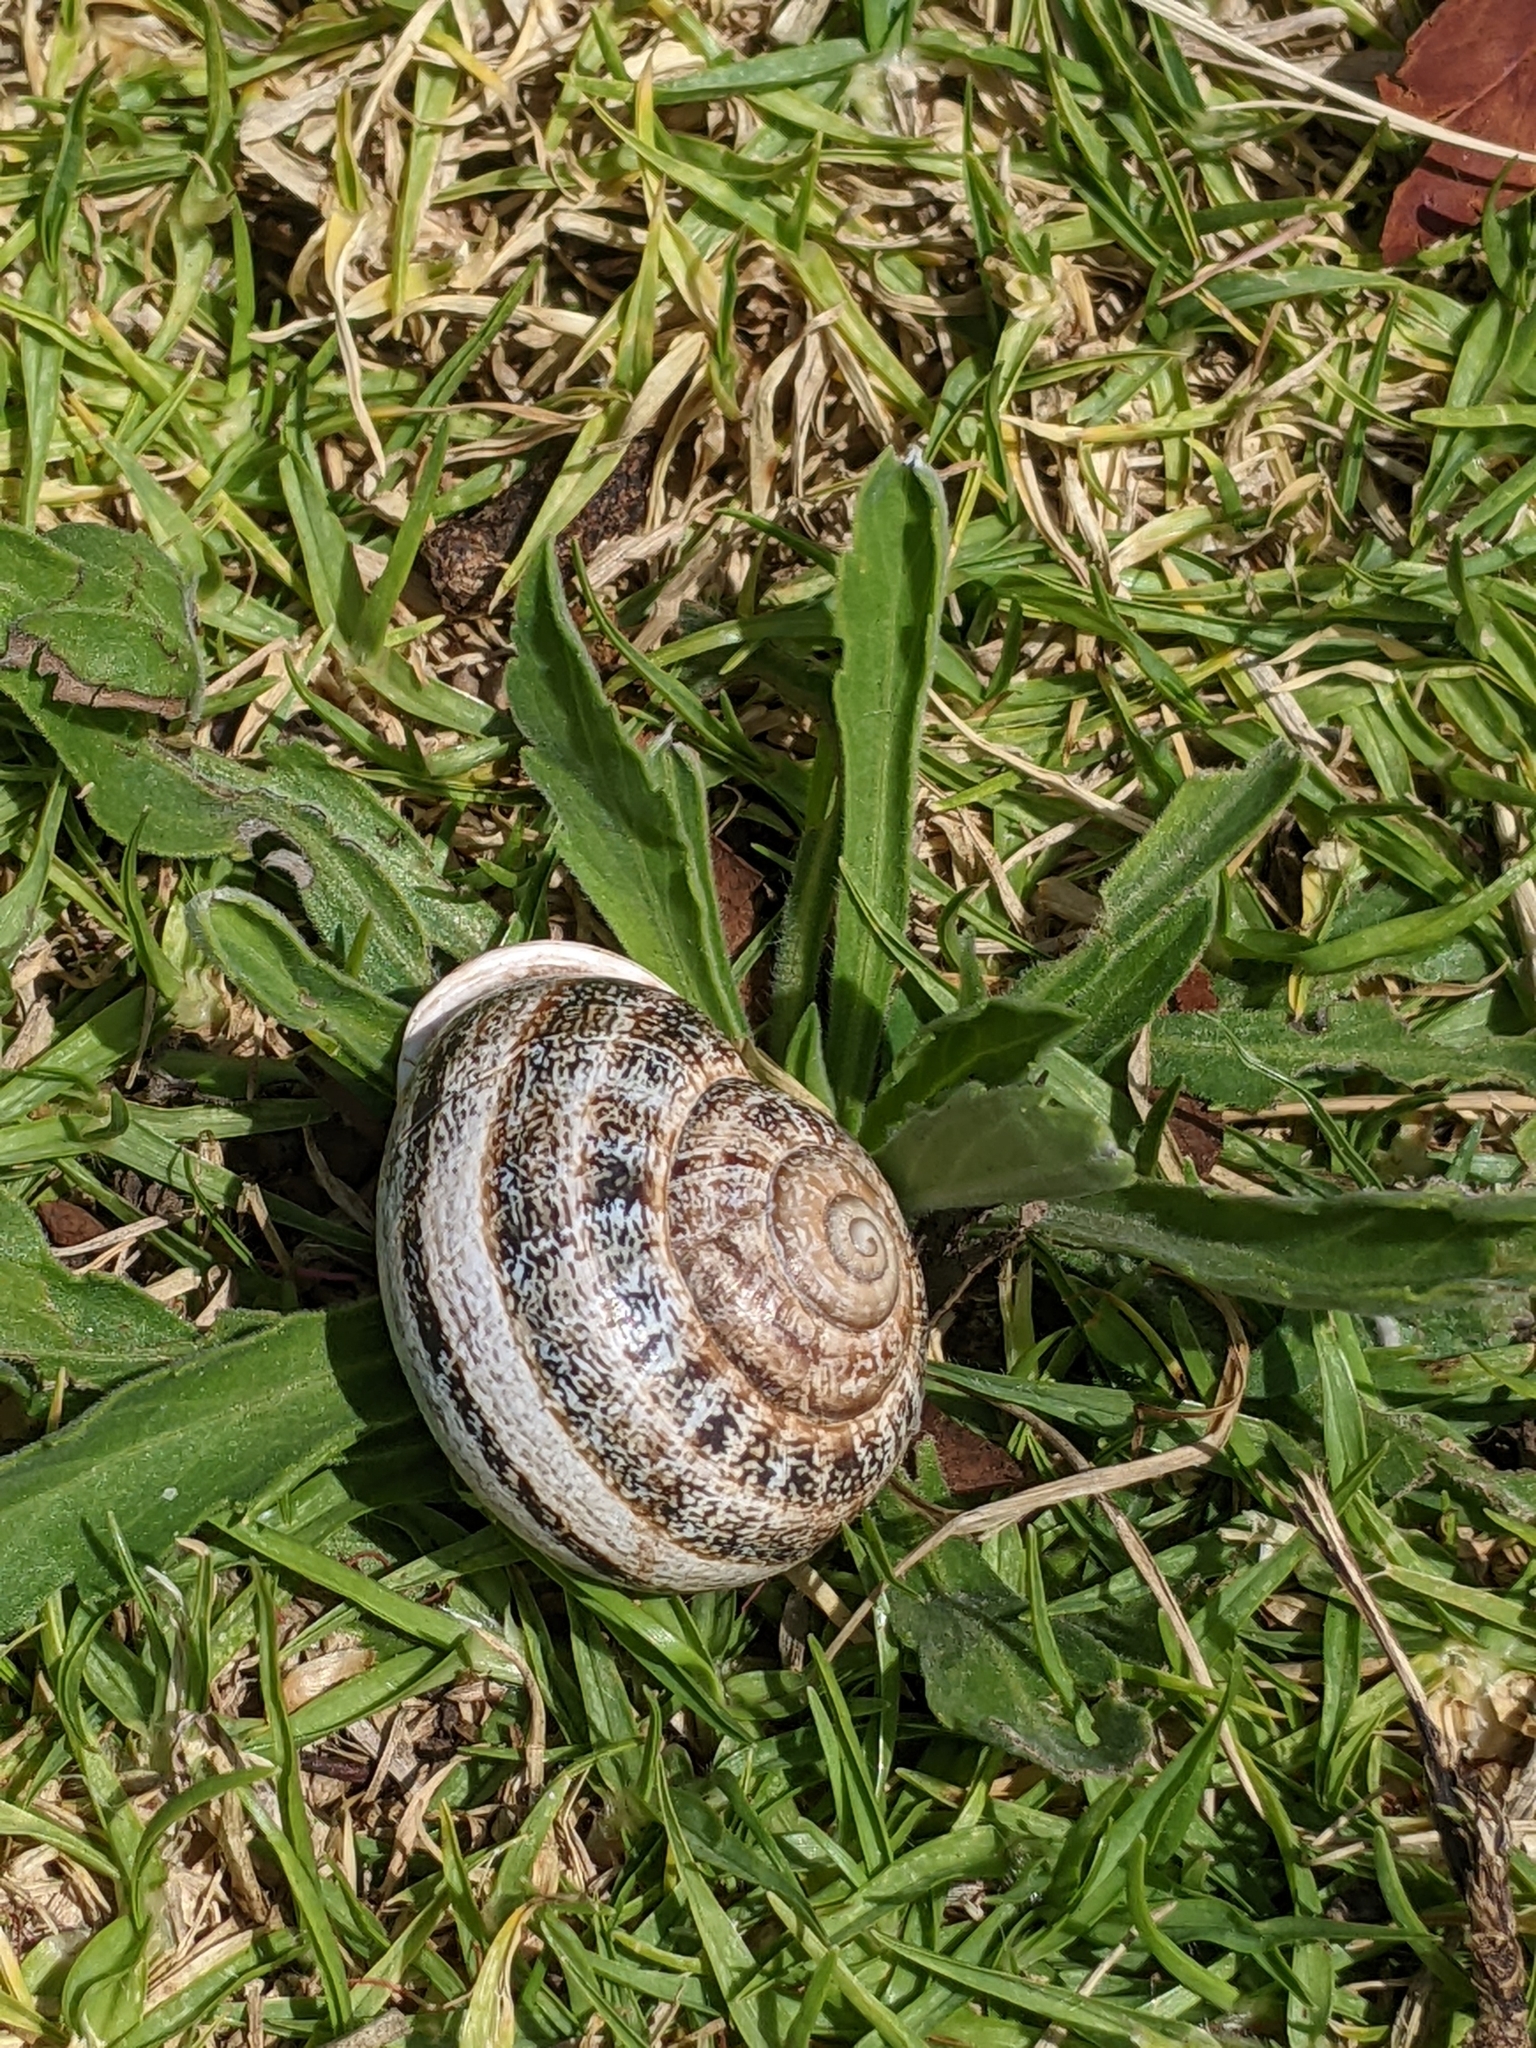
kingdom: Animalia
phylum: Mollusca
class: Gastropoda
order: Stylommatophora
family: Helicidae
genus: Otala
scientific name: Otala lactea
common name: Milk snail
